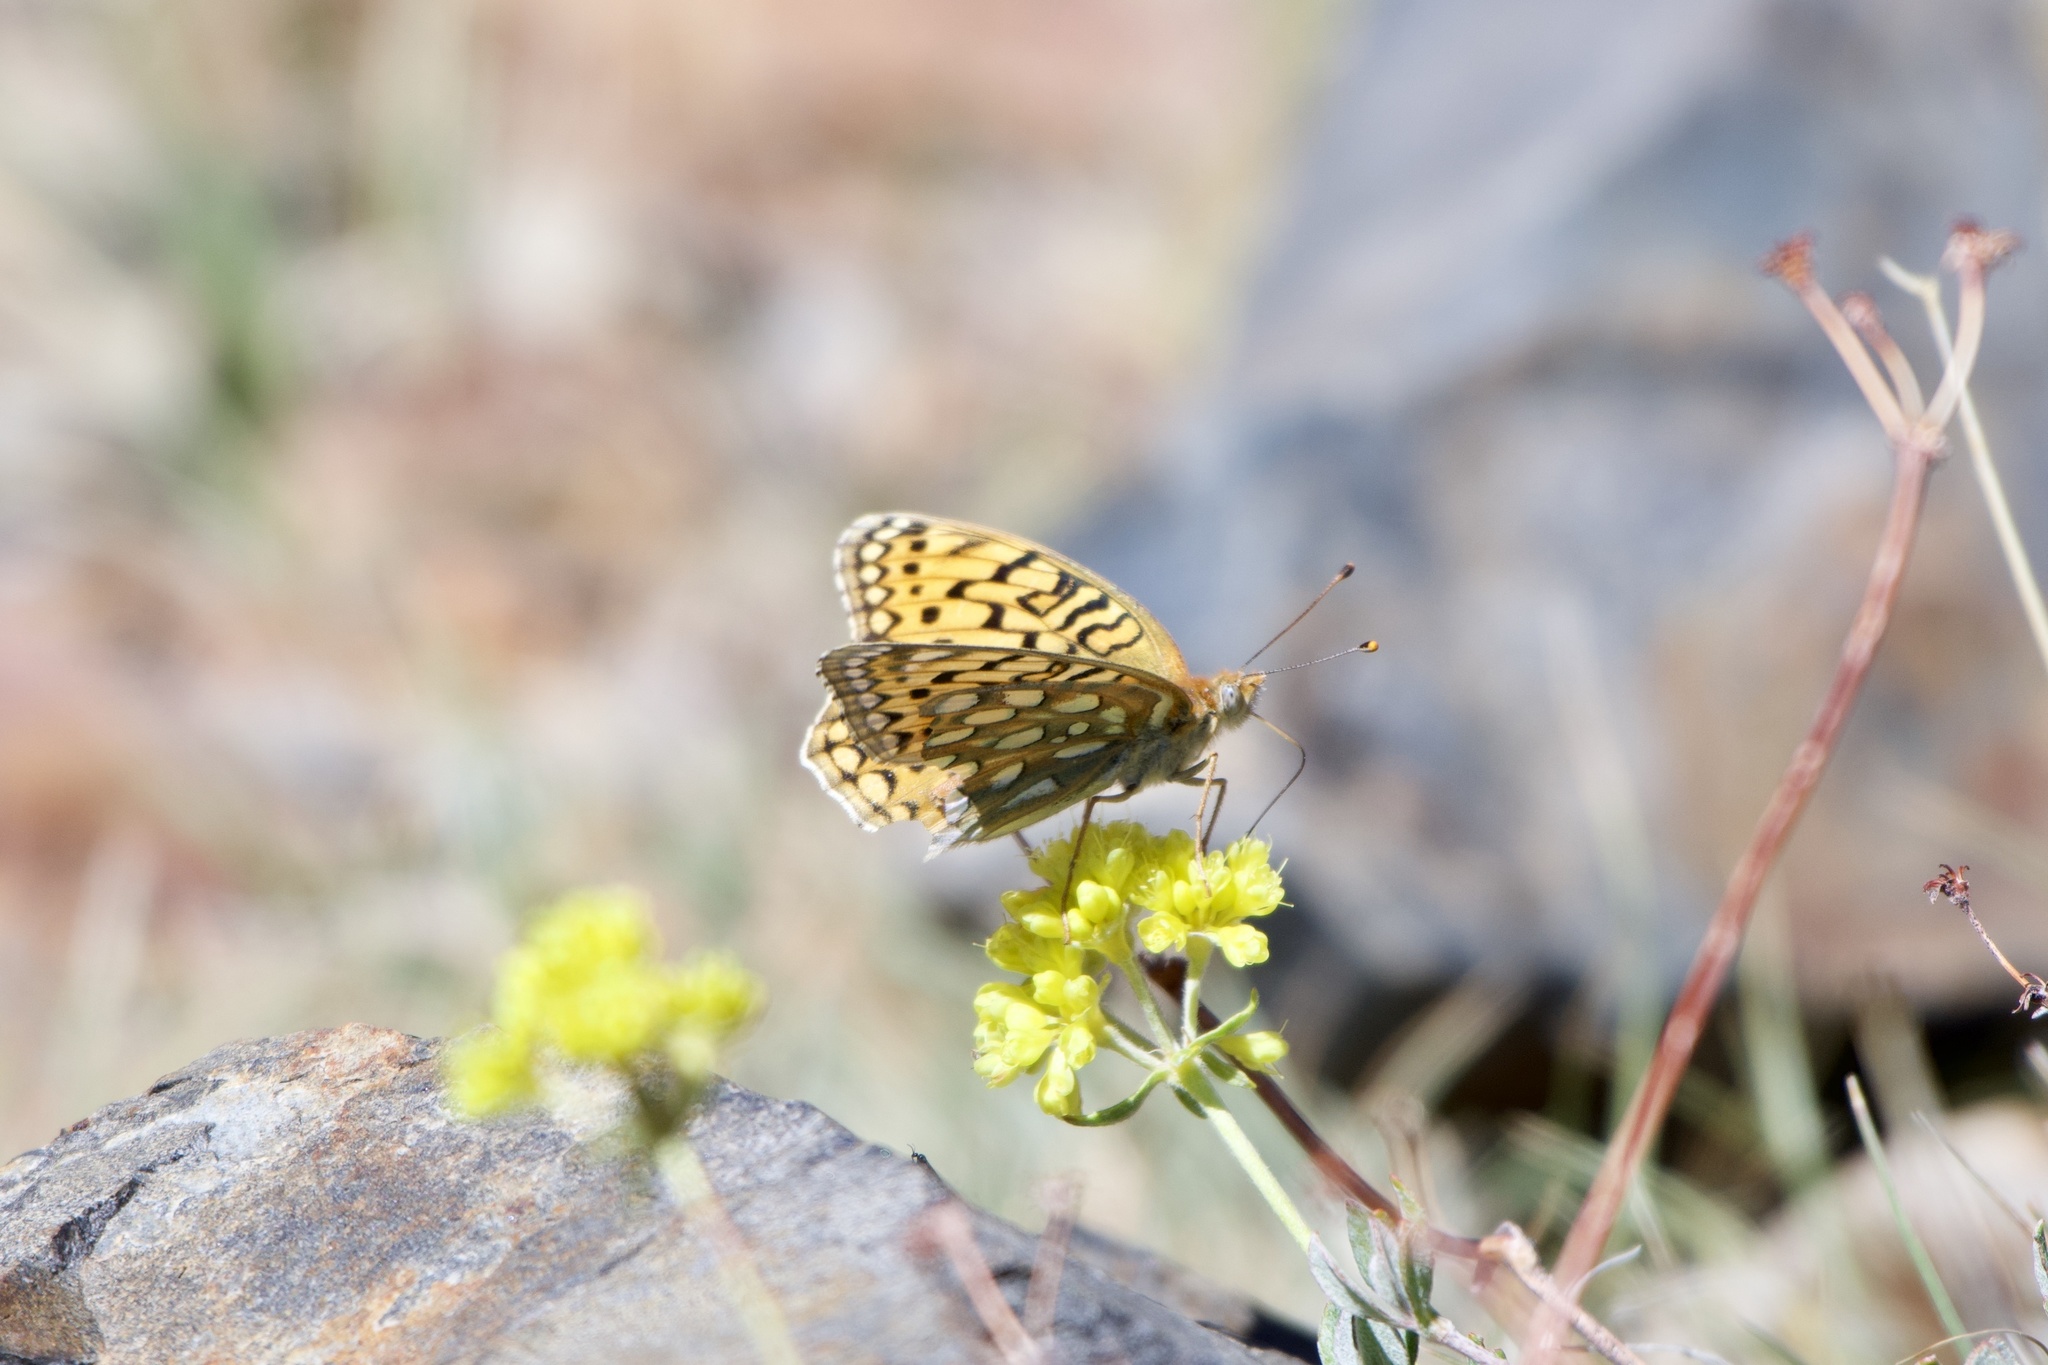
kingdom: Animalia
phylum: Arthropoda
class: Insecta
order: Lepidoptera
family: Nymphalidae
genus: Speyeria
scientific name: Speyeria callippe
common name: Callippe fritillary
